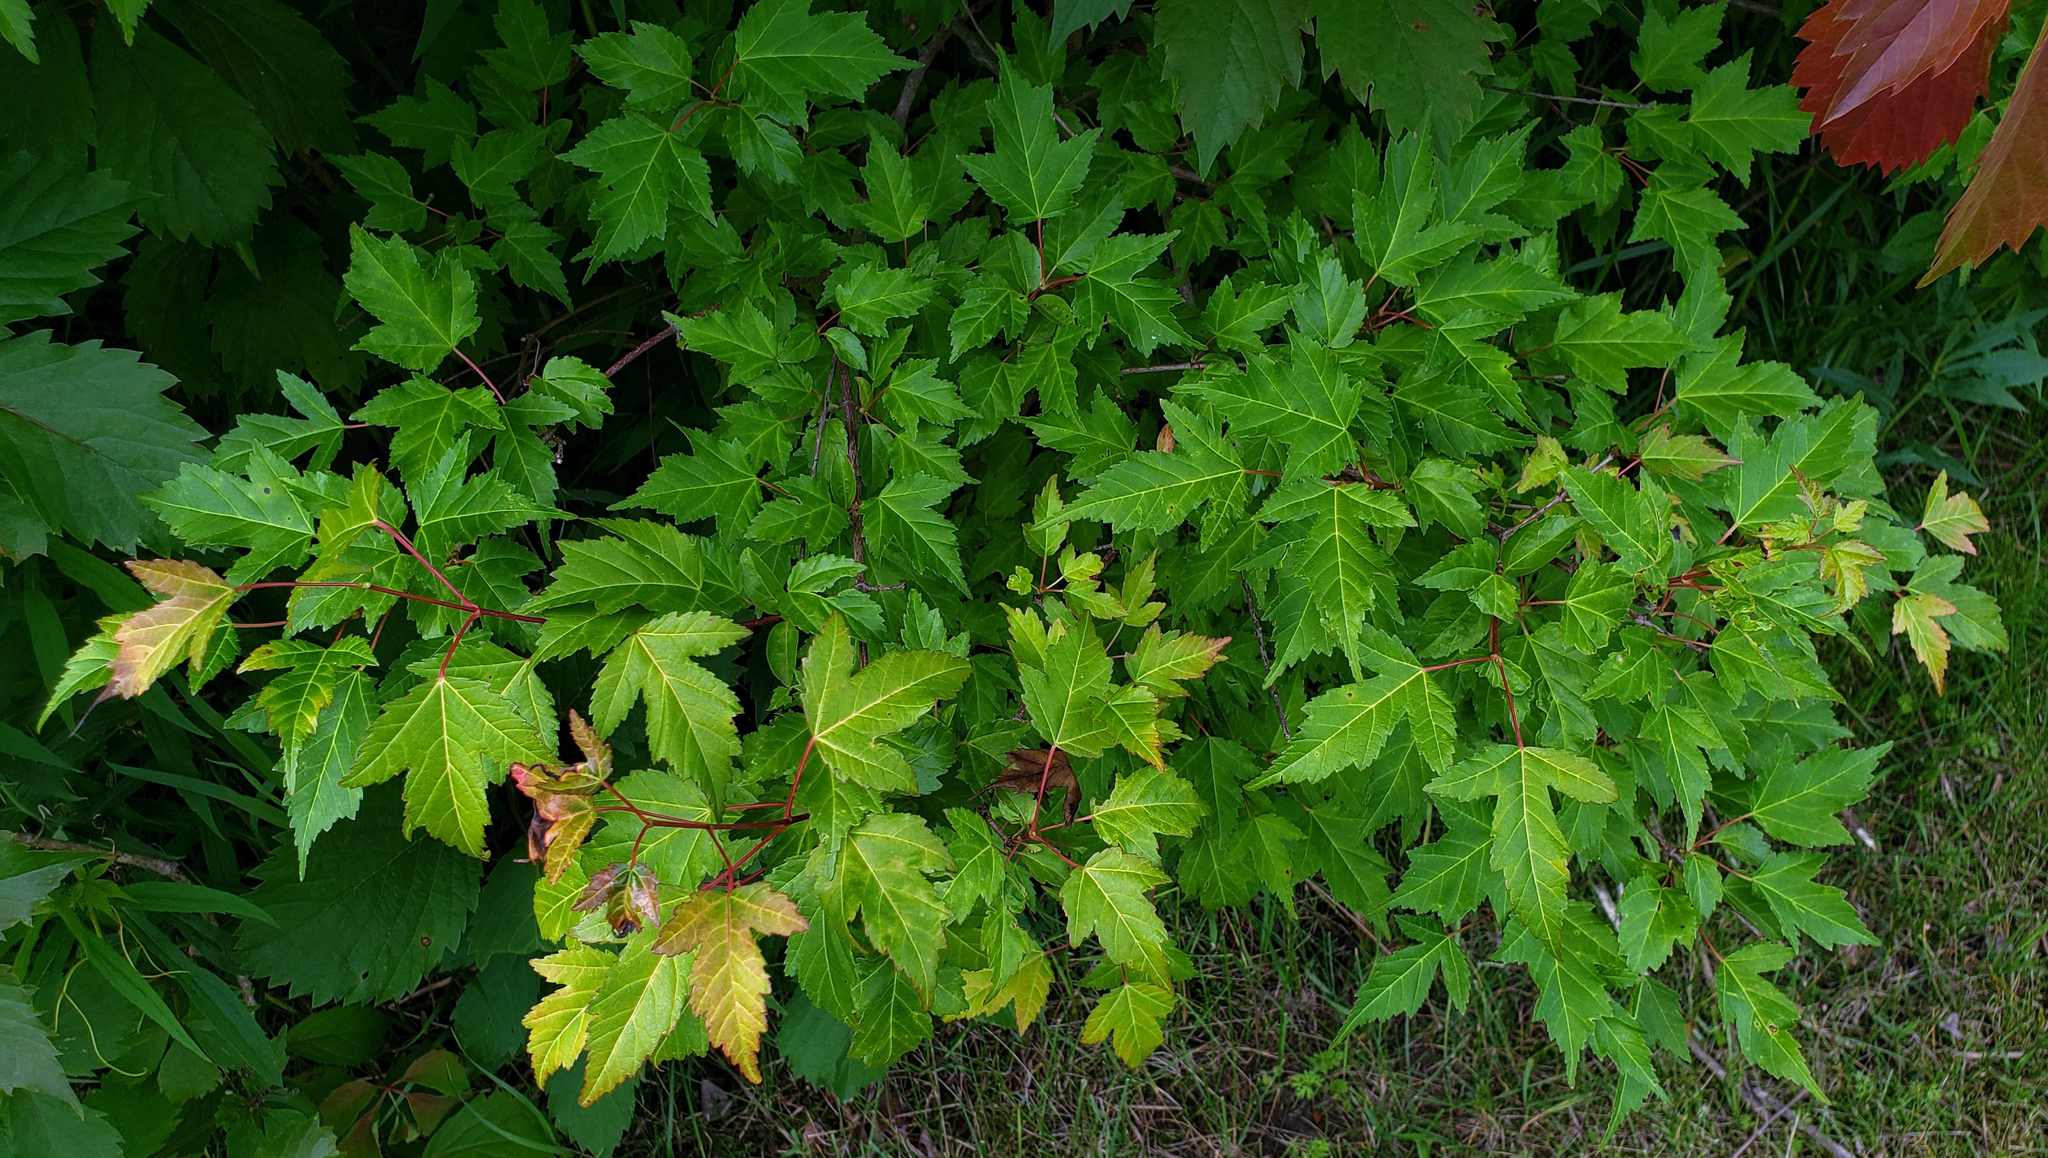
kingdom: Plantae
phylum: Tracheophyta
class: Magnoliopsida
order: Sapindales
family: Sapindaceae
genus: Acer
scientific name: Acer tataricum
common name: Tartar maple
